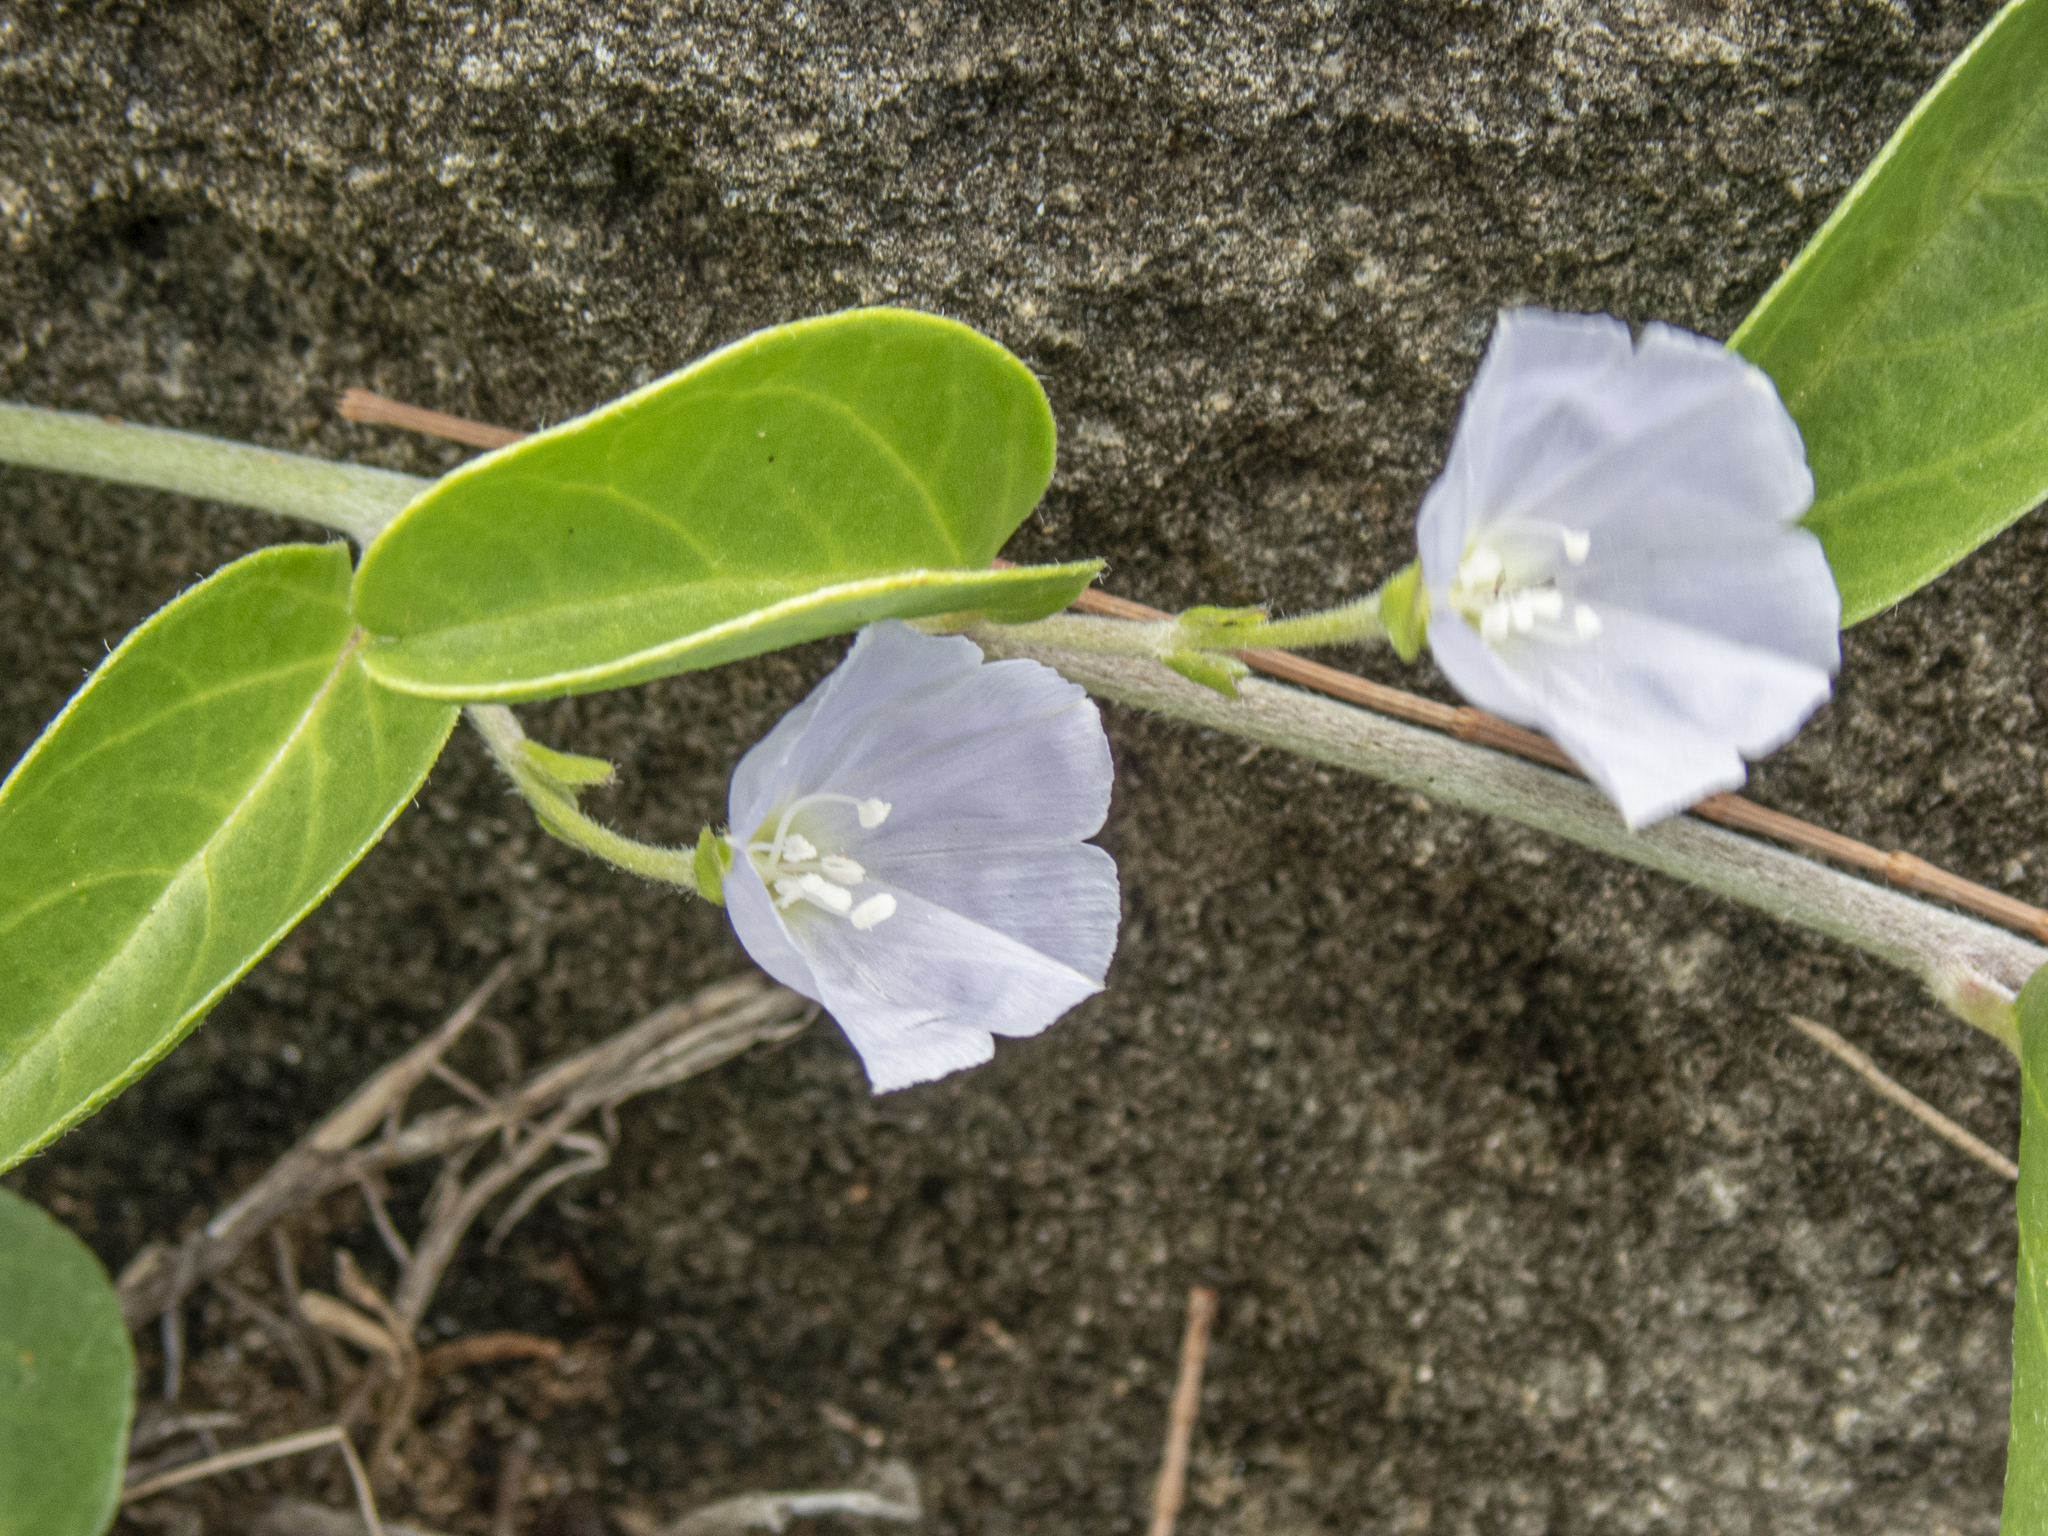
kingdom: Plantae
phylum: Tracheophyta
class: Magnoliopsida
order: Solanales
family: Convolvulaceae
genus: Jacquemontia
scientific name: Jacquemontia sandwicensis
